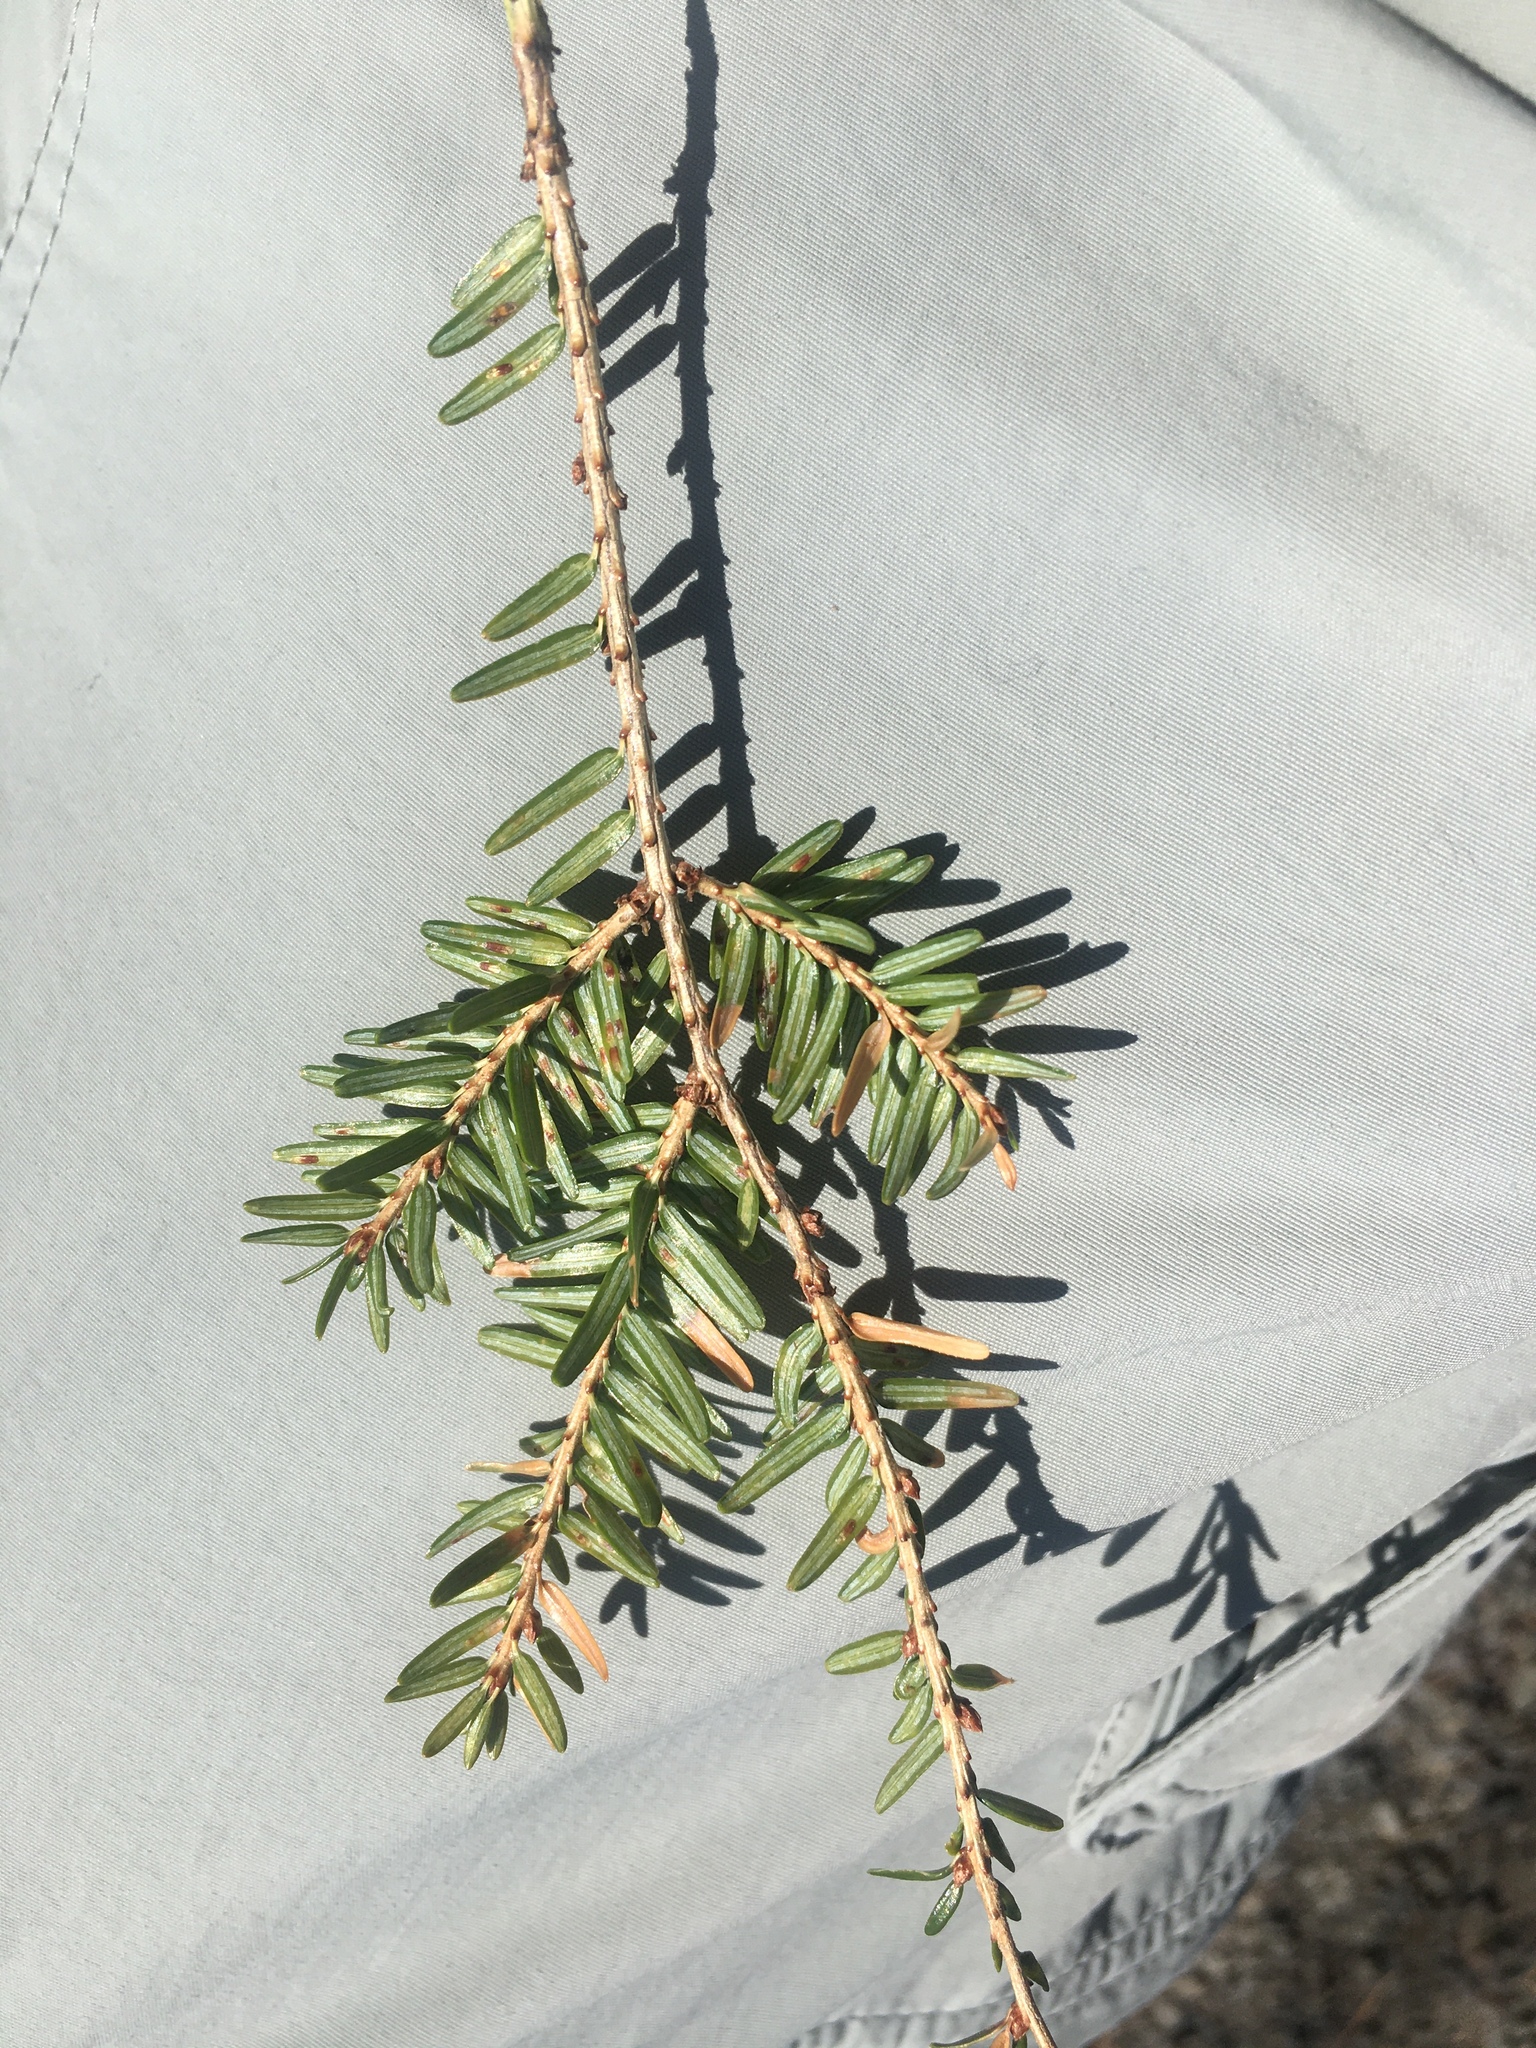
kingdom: Animalia
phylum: Arthropoda
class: Insecta
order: Hemiptera
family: Diaspididae
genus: Fiorinia
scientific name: Fiorinia externa
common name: Elongate hemlock scale
